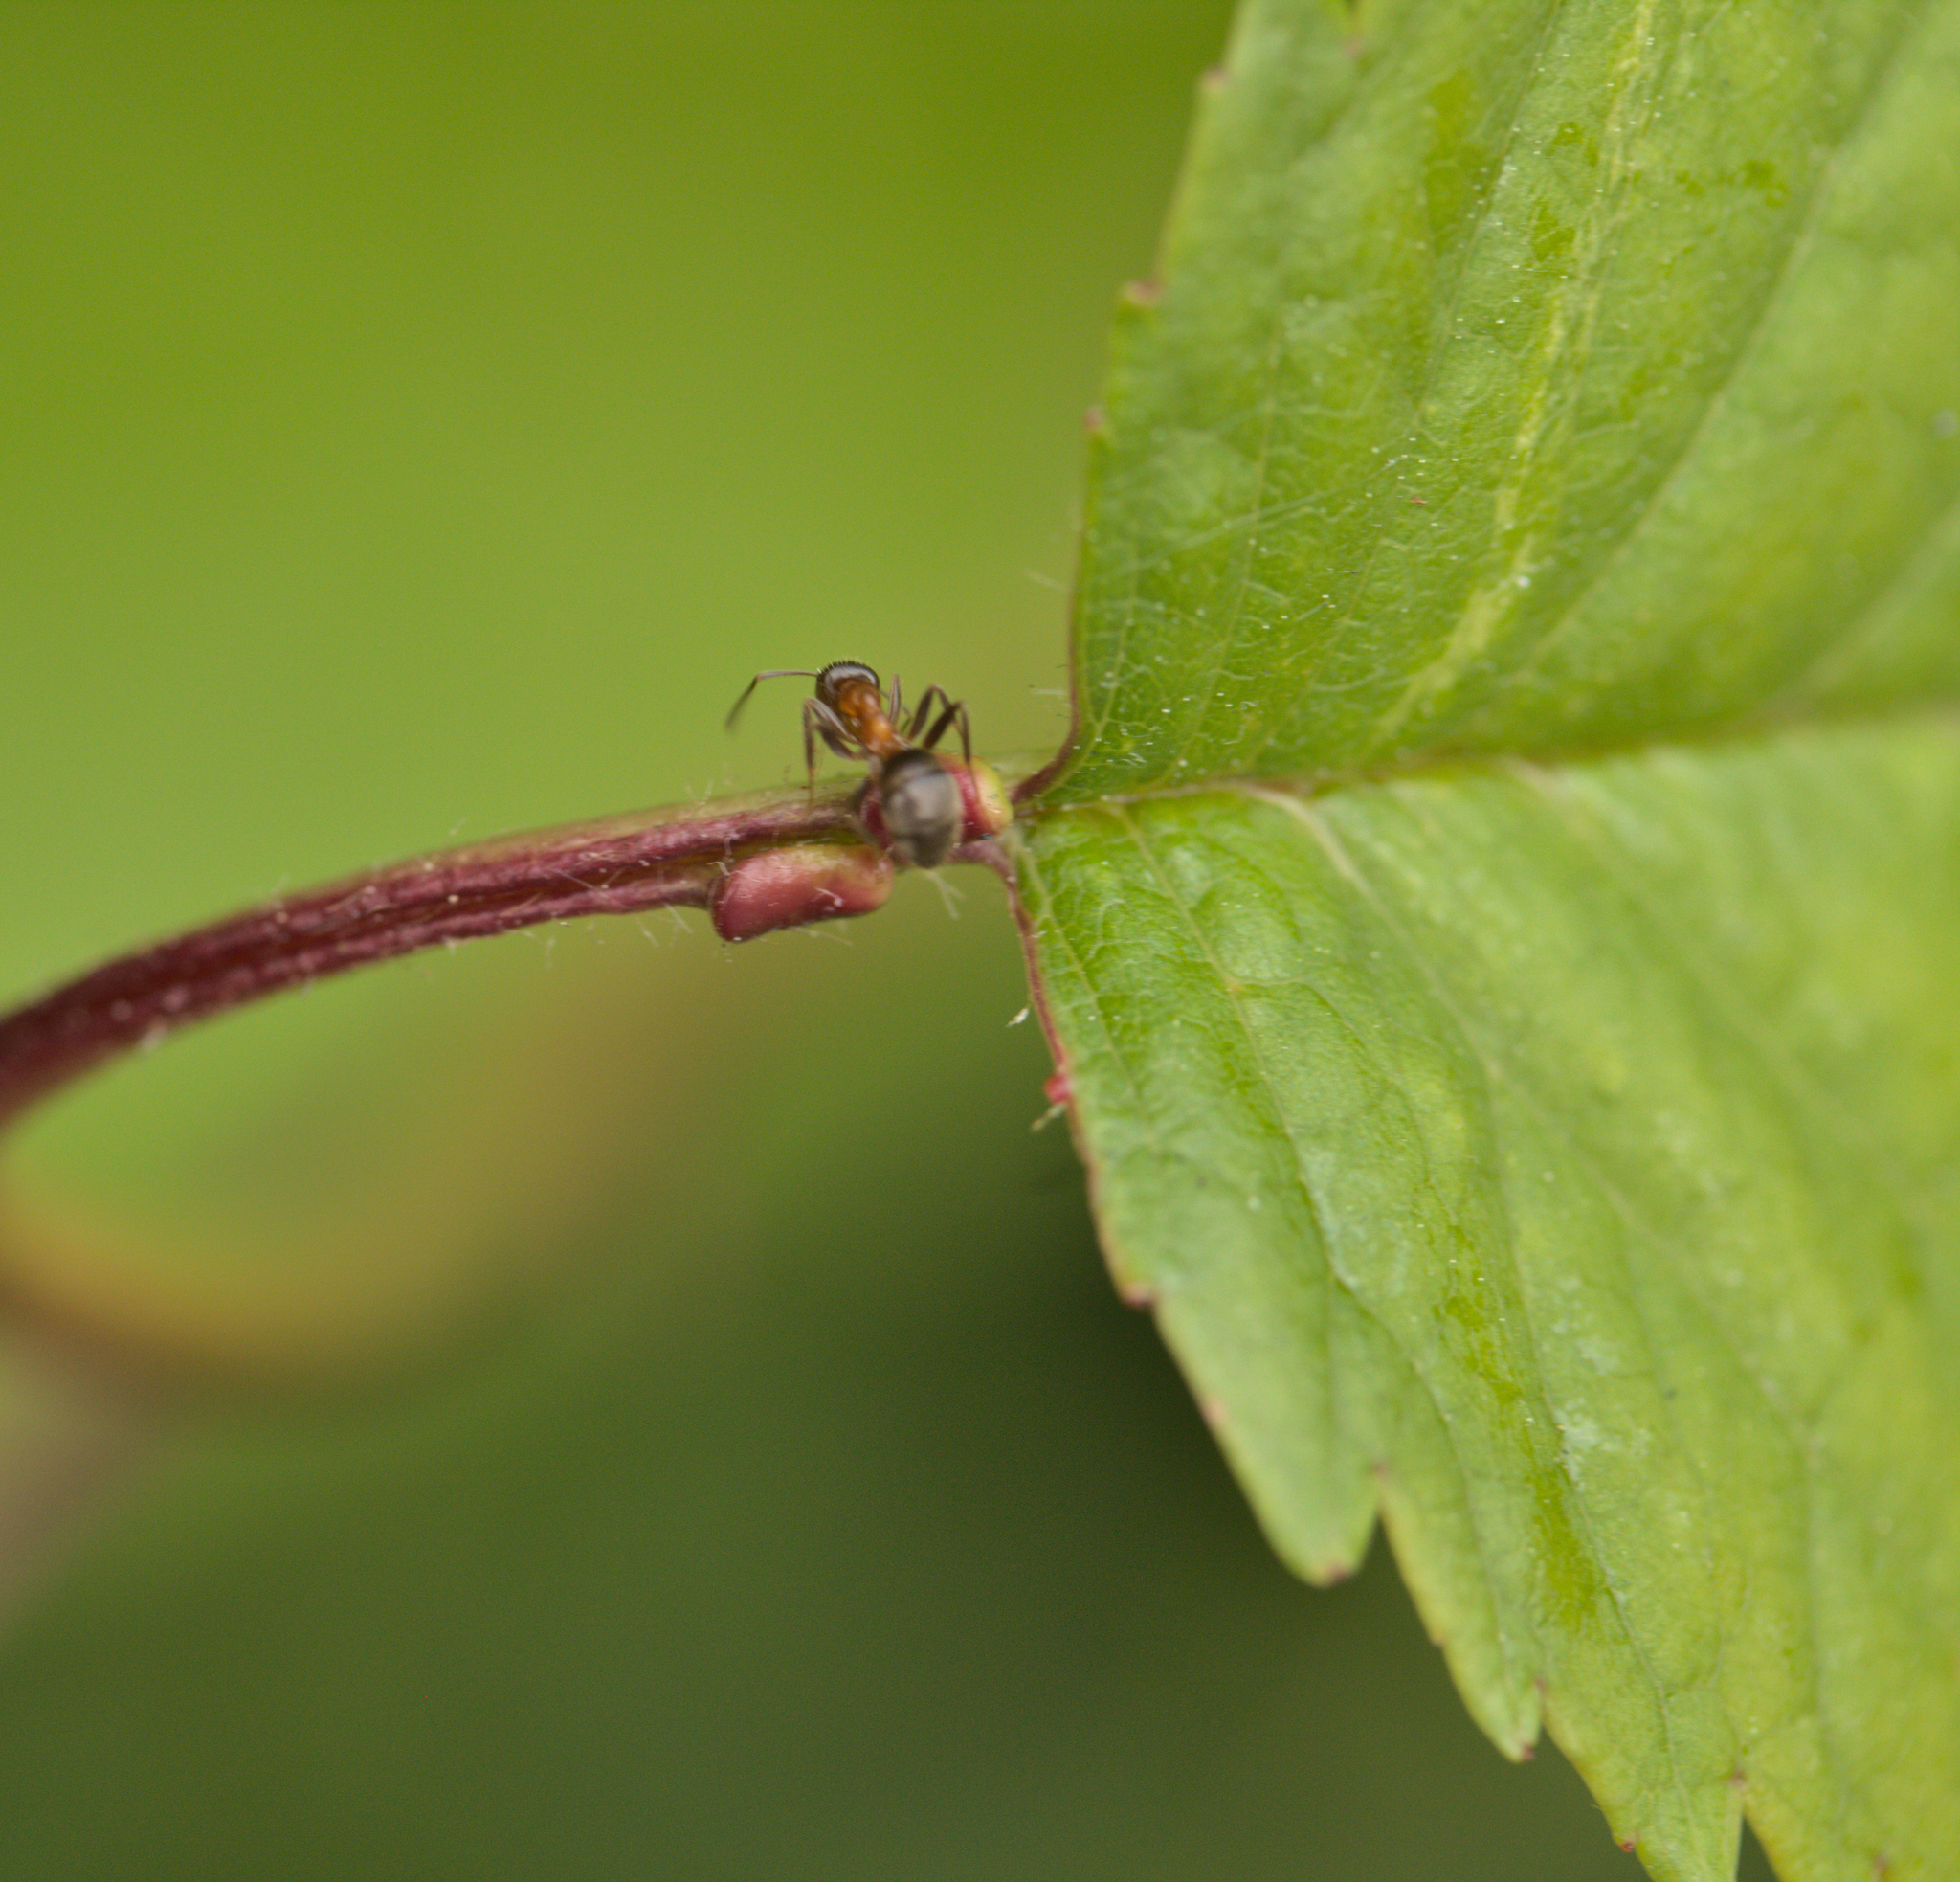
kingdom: Animalia
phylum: Arthropoda
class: Insecta
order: Hymenoptera
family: Formicidae
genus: Lasius
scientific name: Lasius emarginatus
